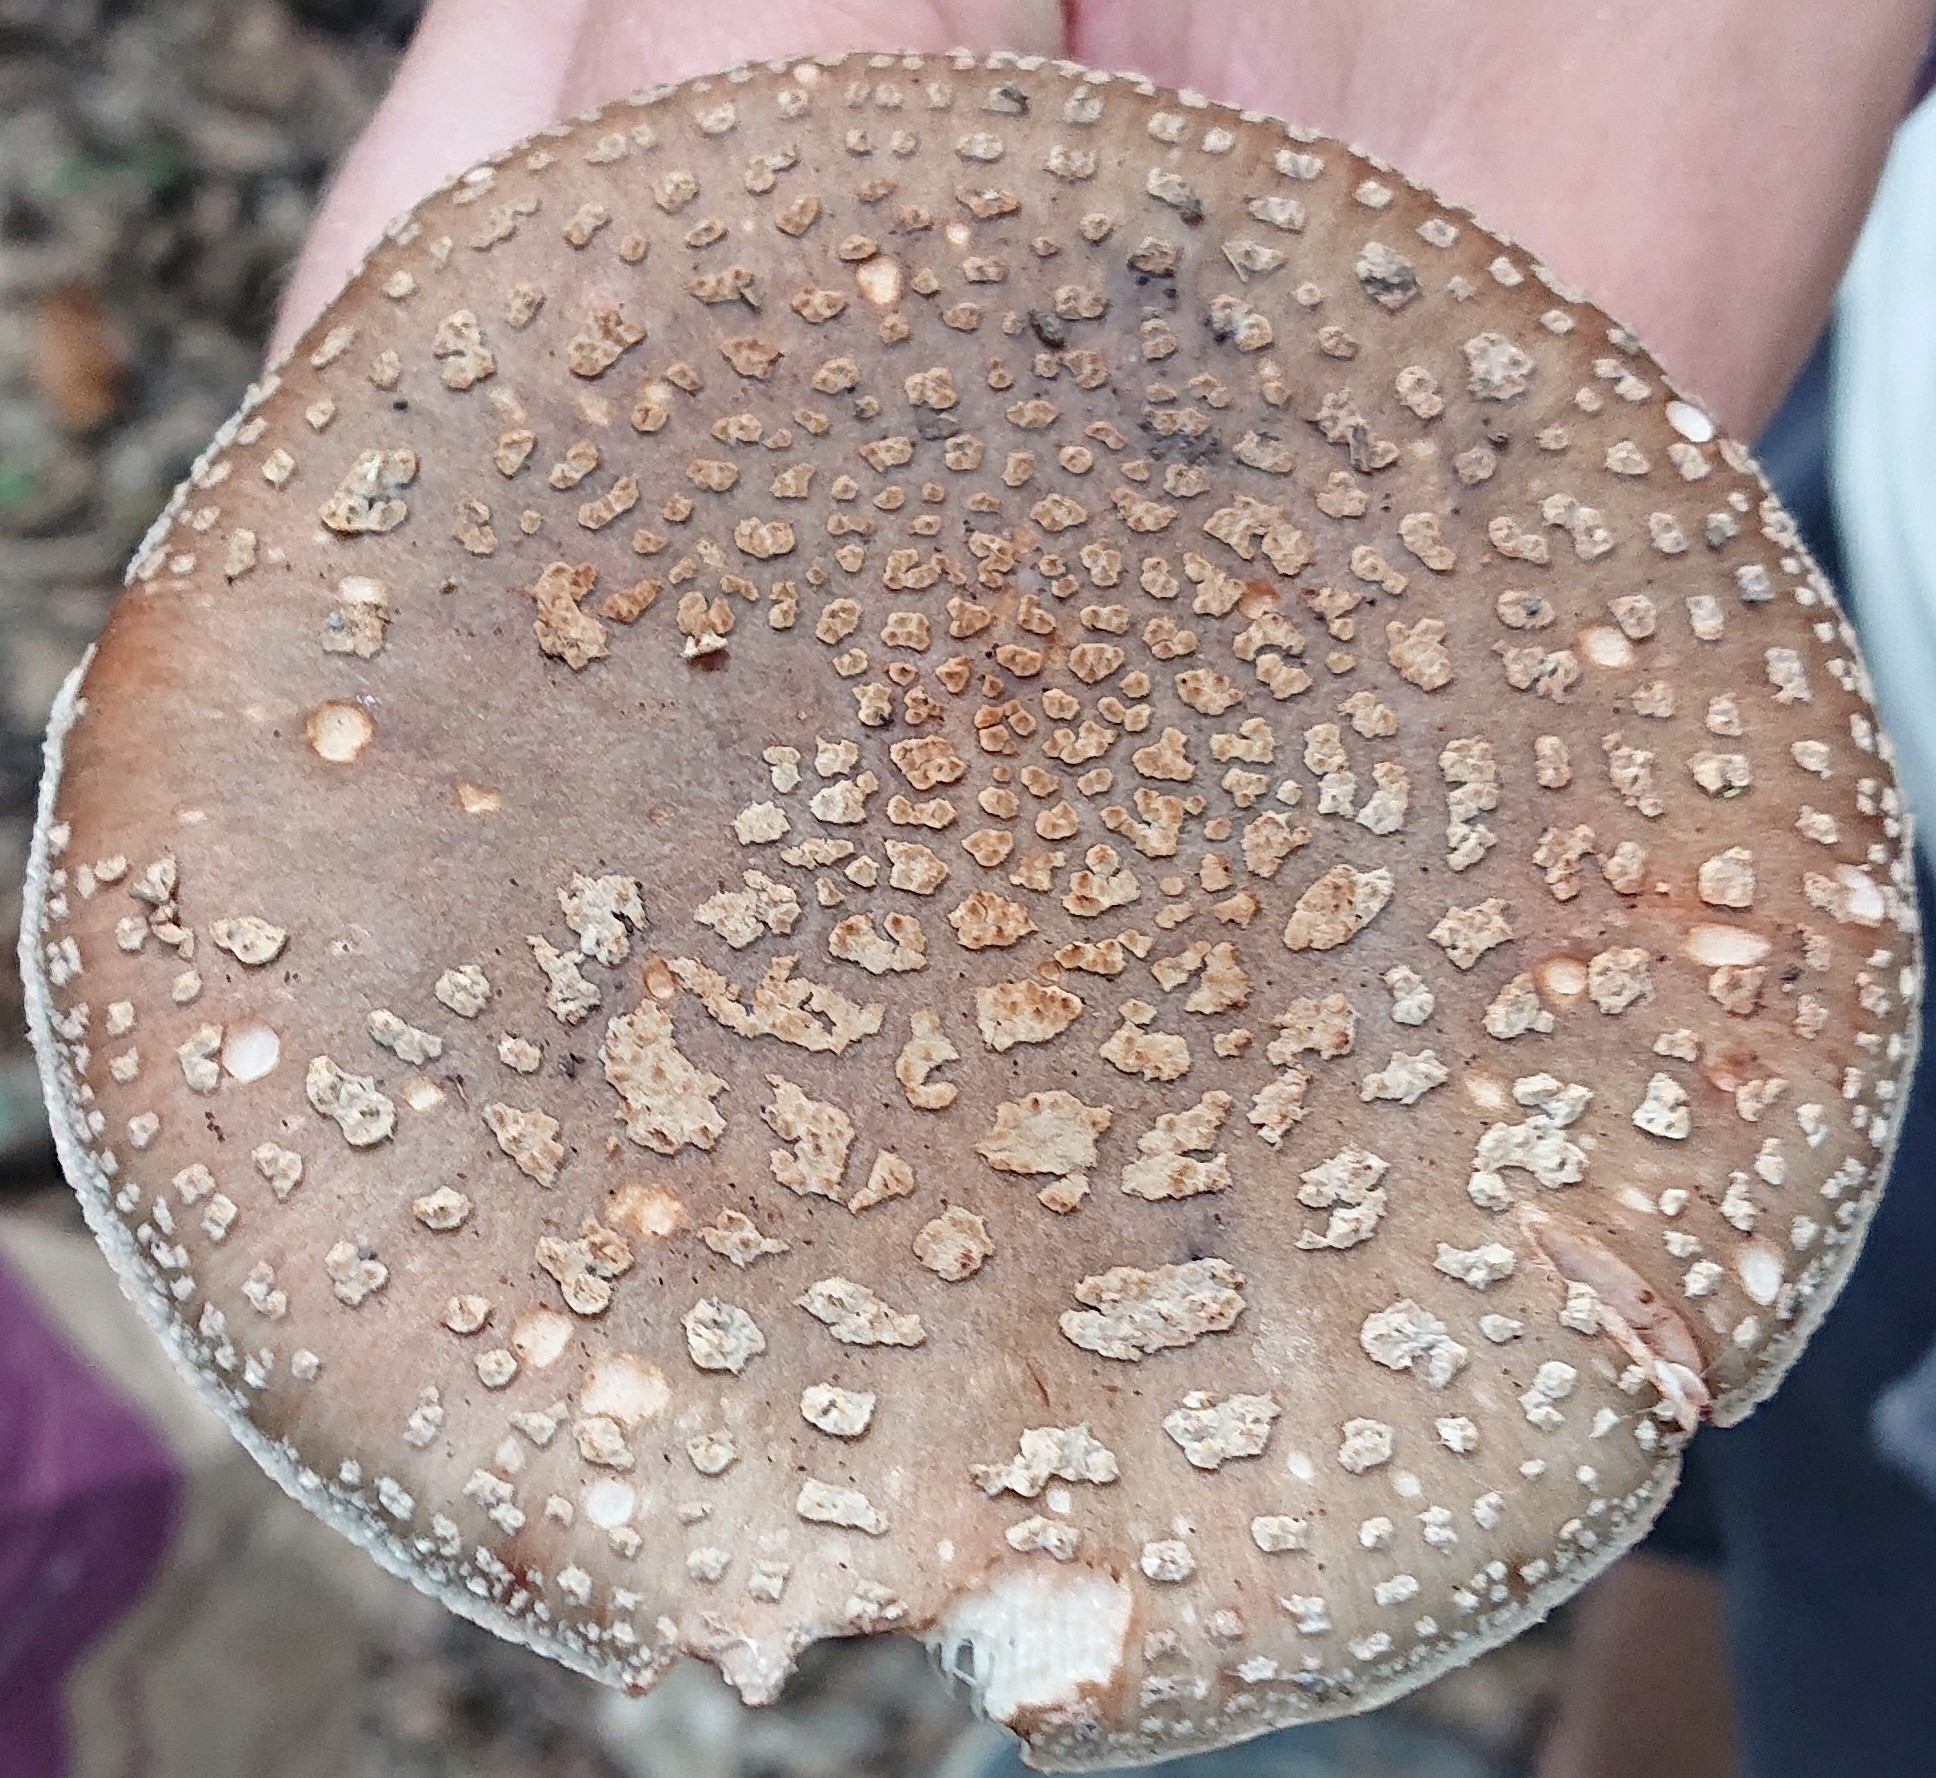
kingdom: Fungi
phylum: Basidiomycota
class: Agaricomycetes
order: Agaricales
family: Amanitaceae
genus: Amanita
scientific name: Amanita rubescens
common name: Blusher
